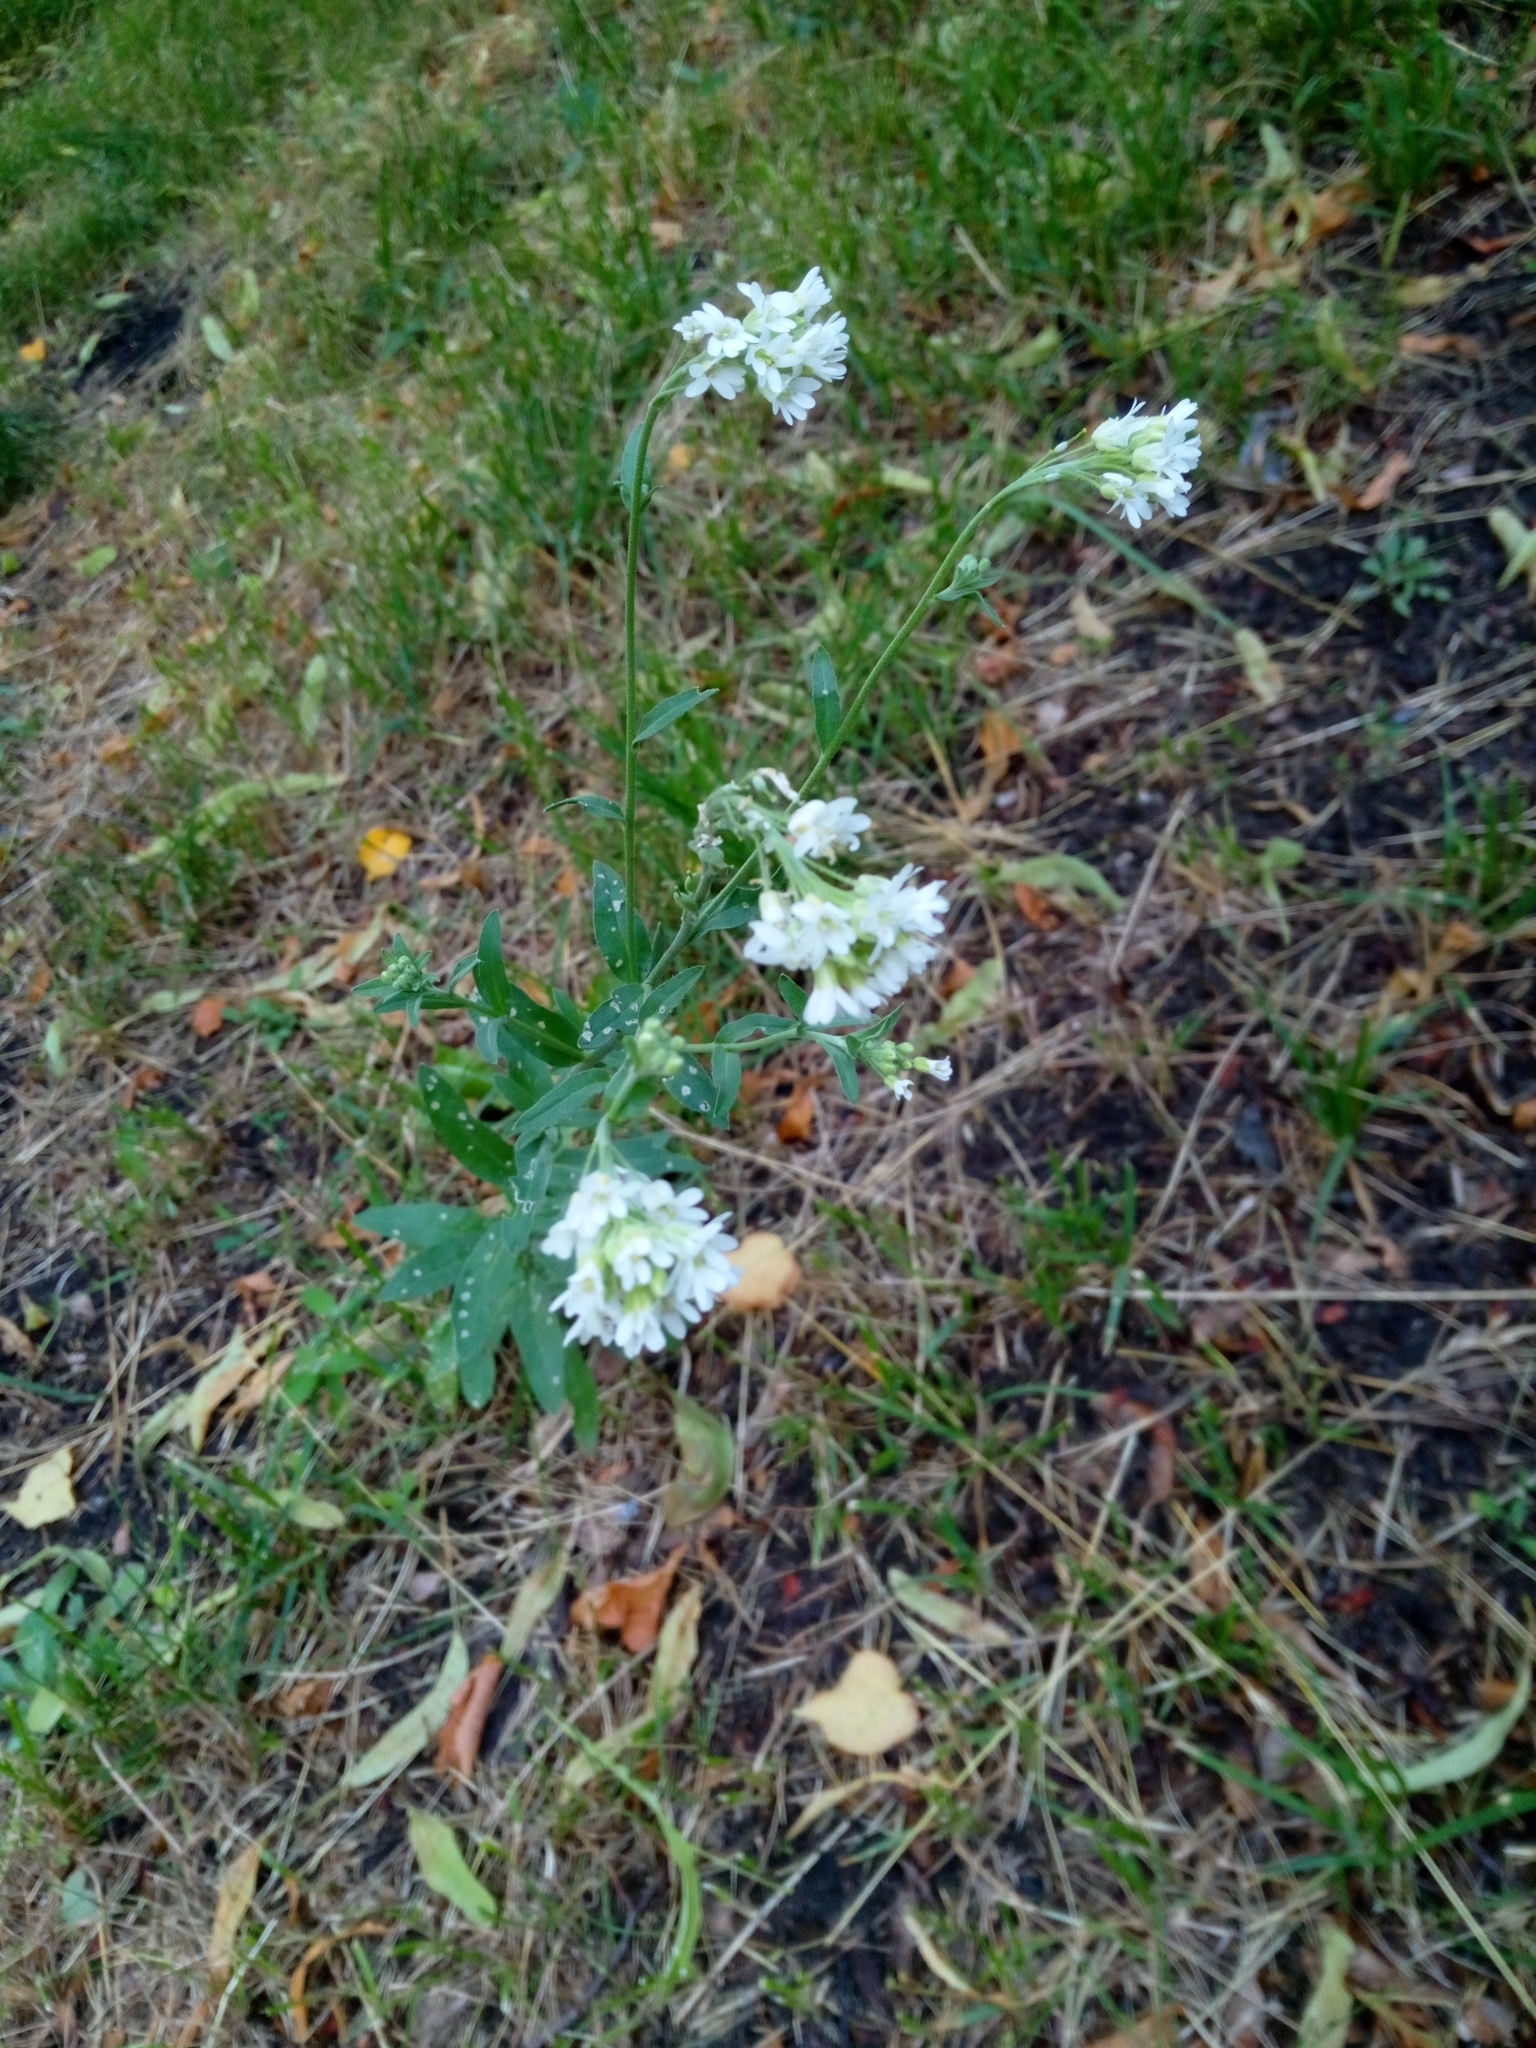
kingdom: Plantae
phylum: Tracheophyta
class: Magnoliopsida
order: Brassicales
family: Brassicaceae
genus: Berteroa
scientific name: Berteroa incana
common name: Hoary alison
